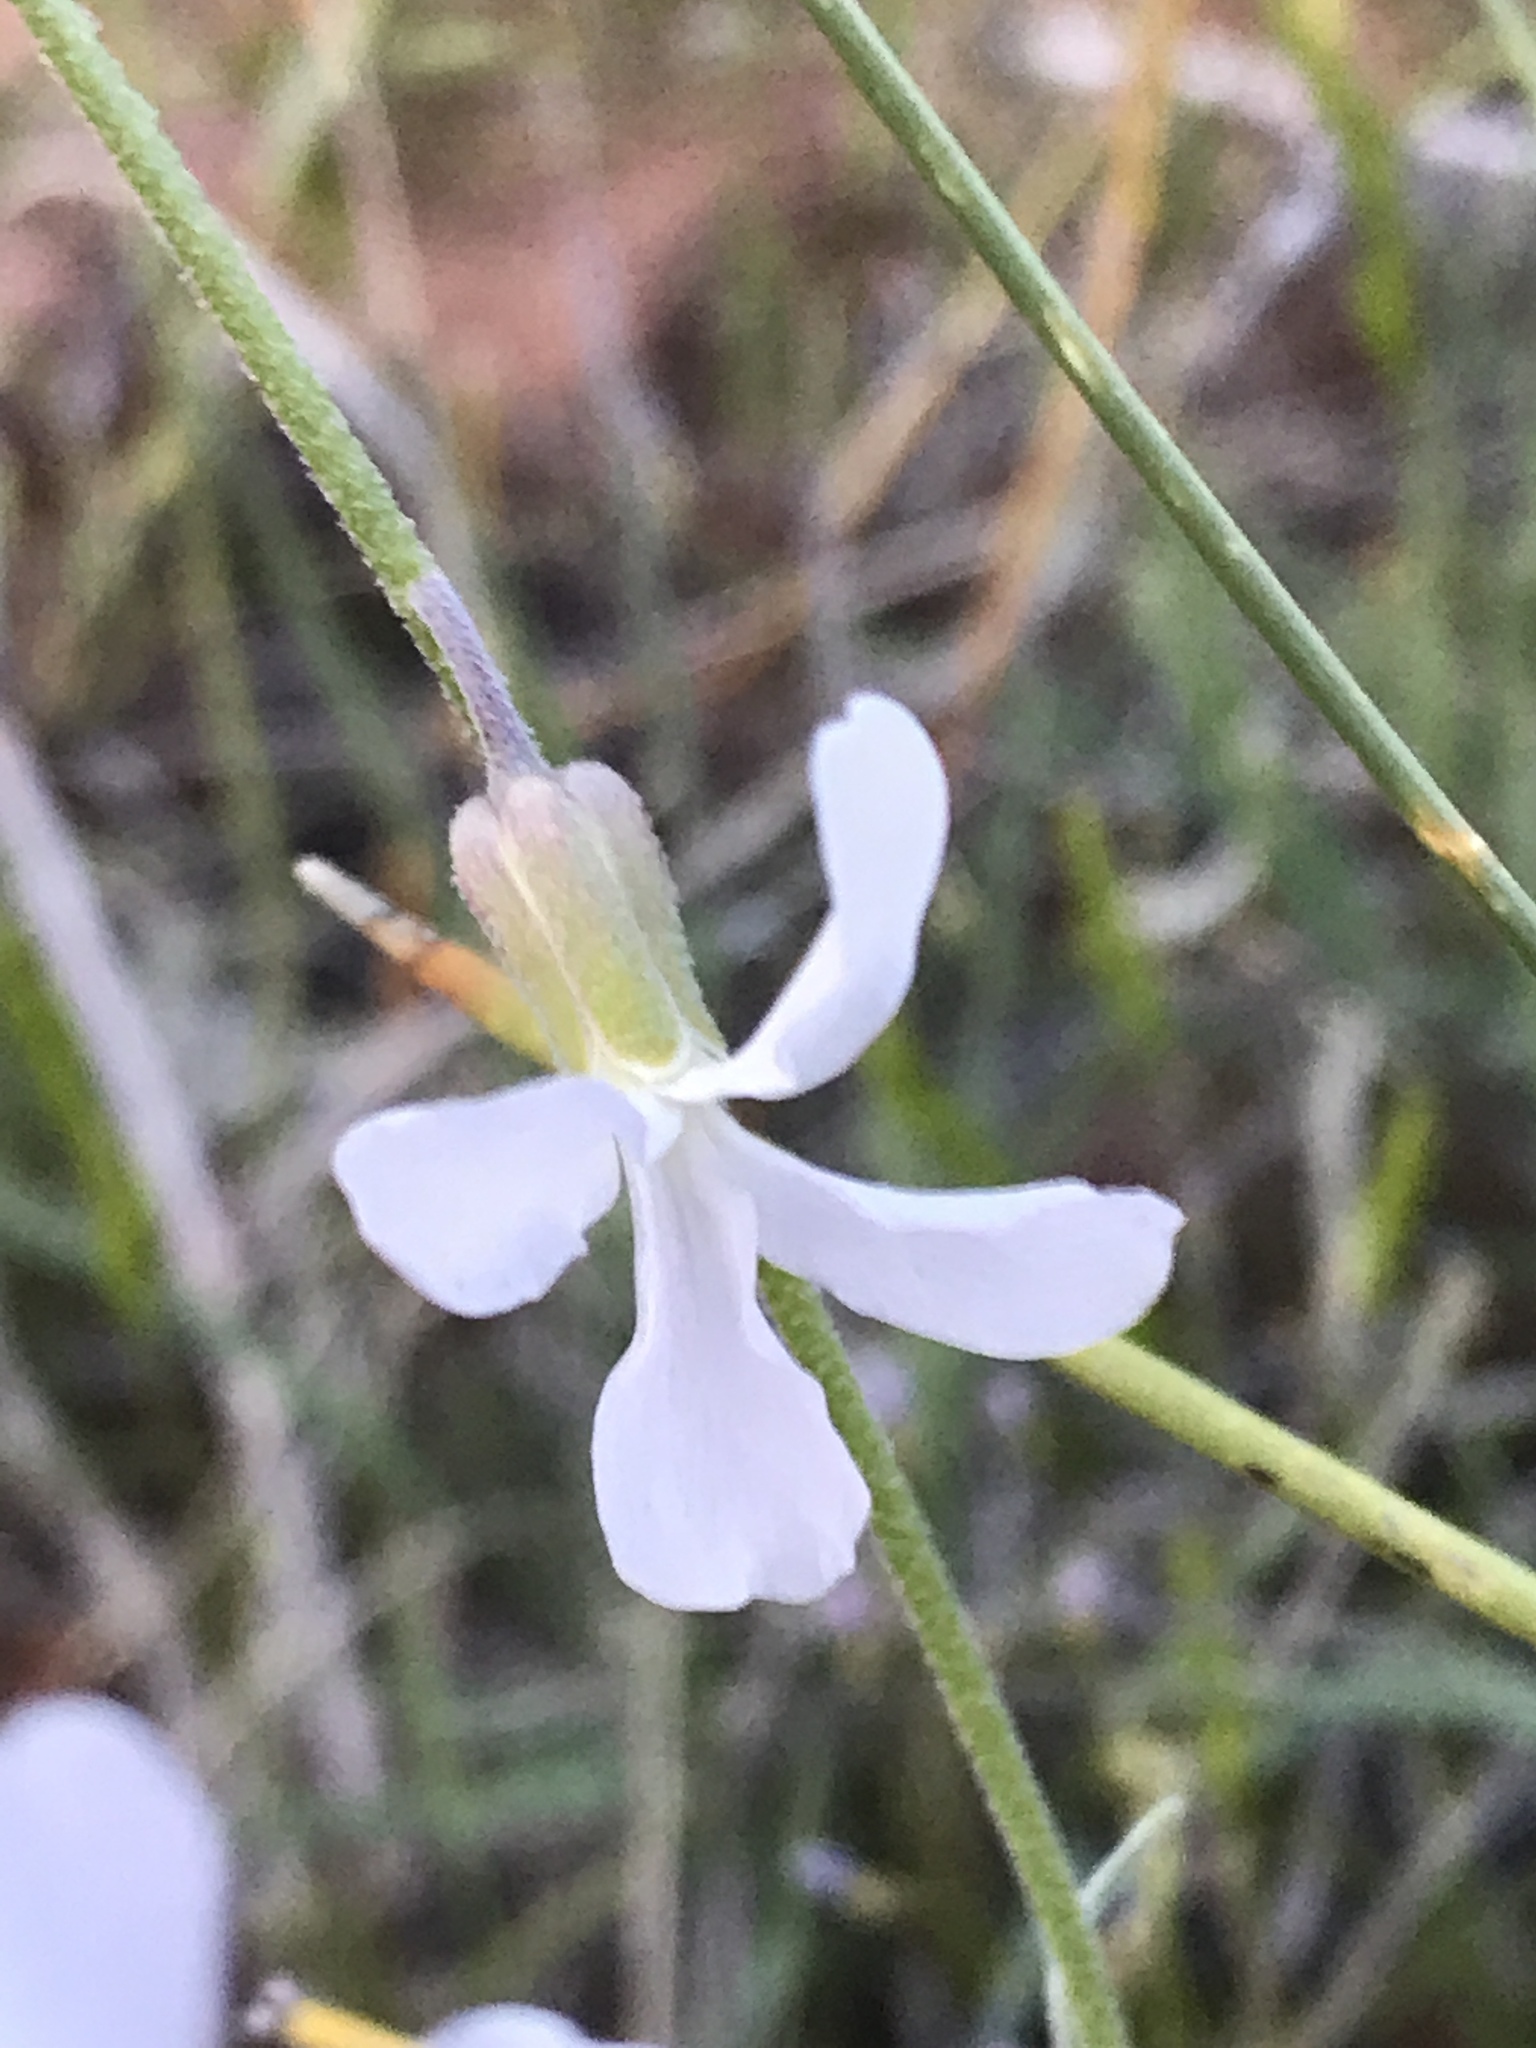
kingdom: Plantae
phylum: Tracheophyta
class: Magnoliopsida
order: Brassicales
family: Brassicaceae
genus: Boechera
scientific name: Boechera formosa
